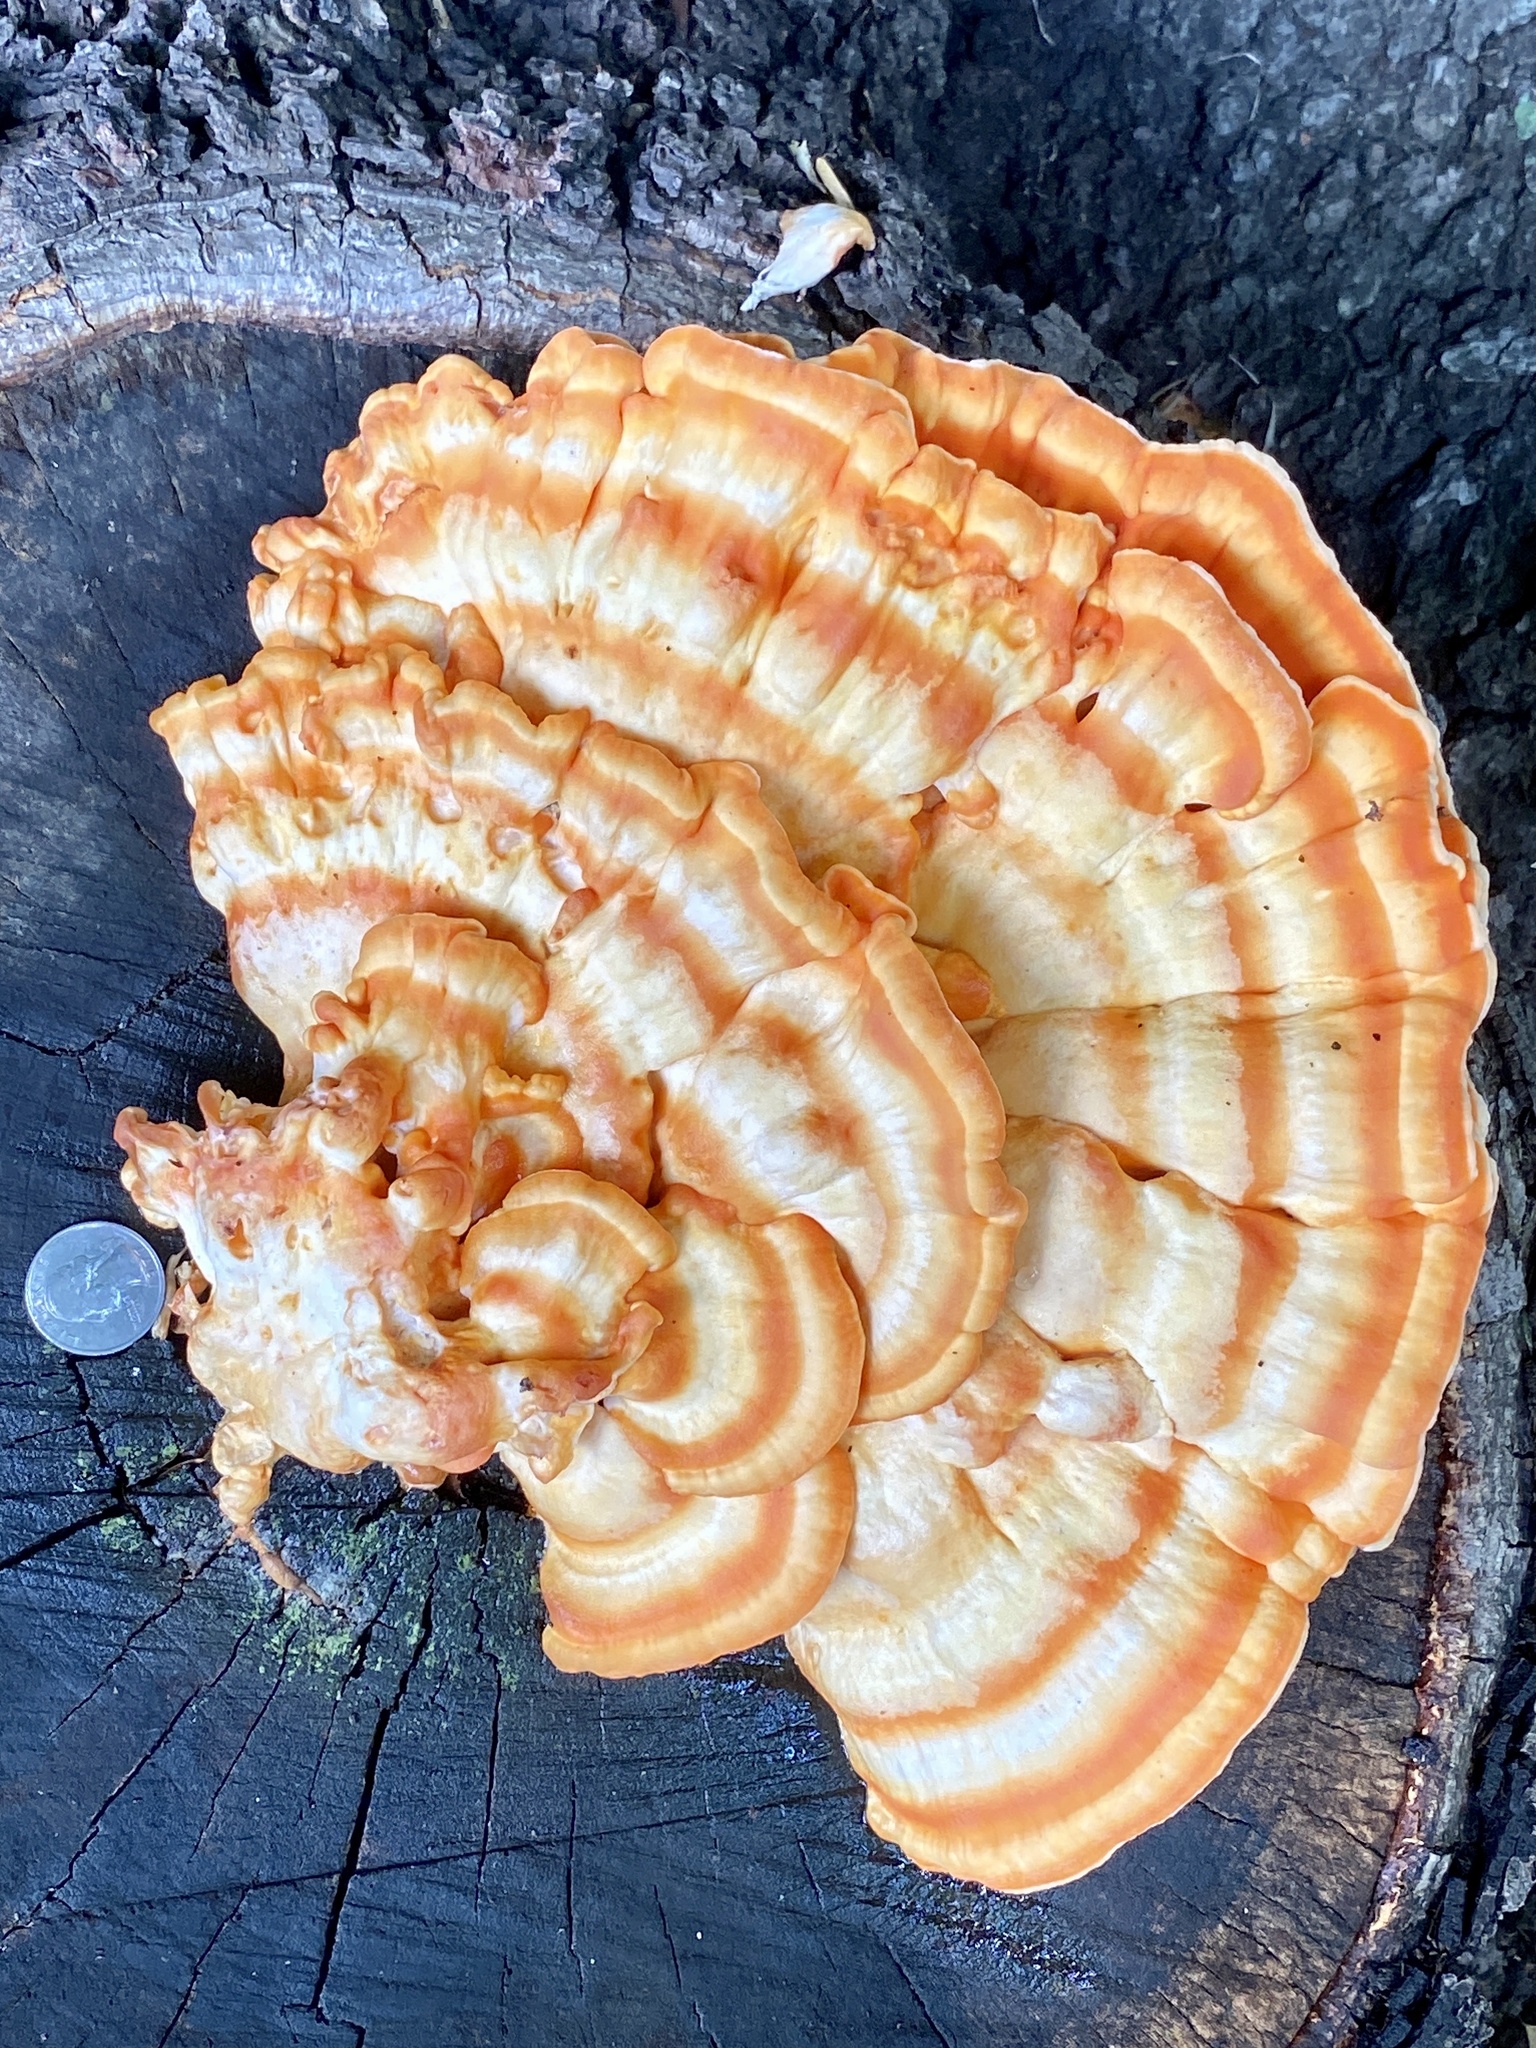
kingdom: Fungi
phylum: Basidiomycota
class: Agaricomycetes
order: Polyporales
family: Laetiporaceae
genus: Laetiporus
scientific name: Laetiporus sulphureus
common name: Chicken of the woods
